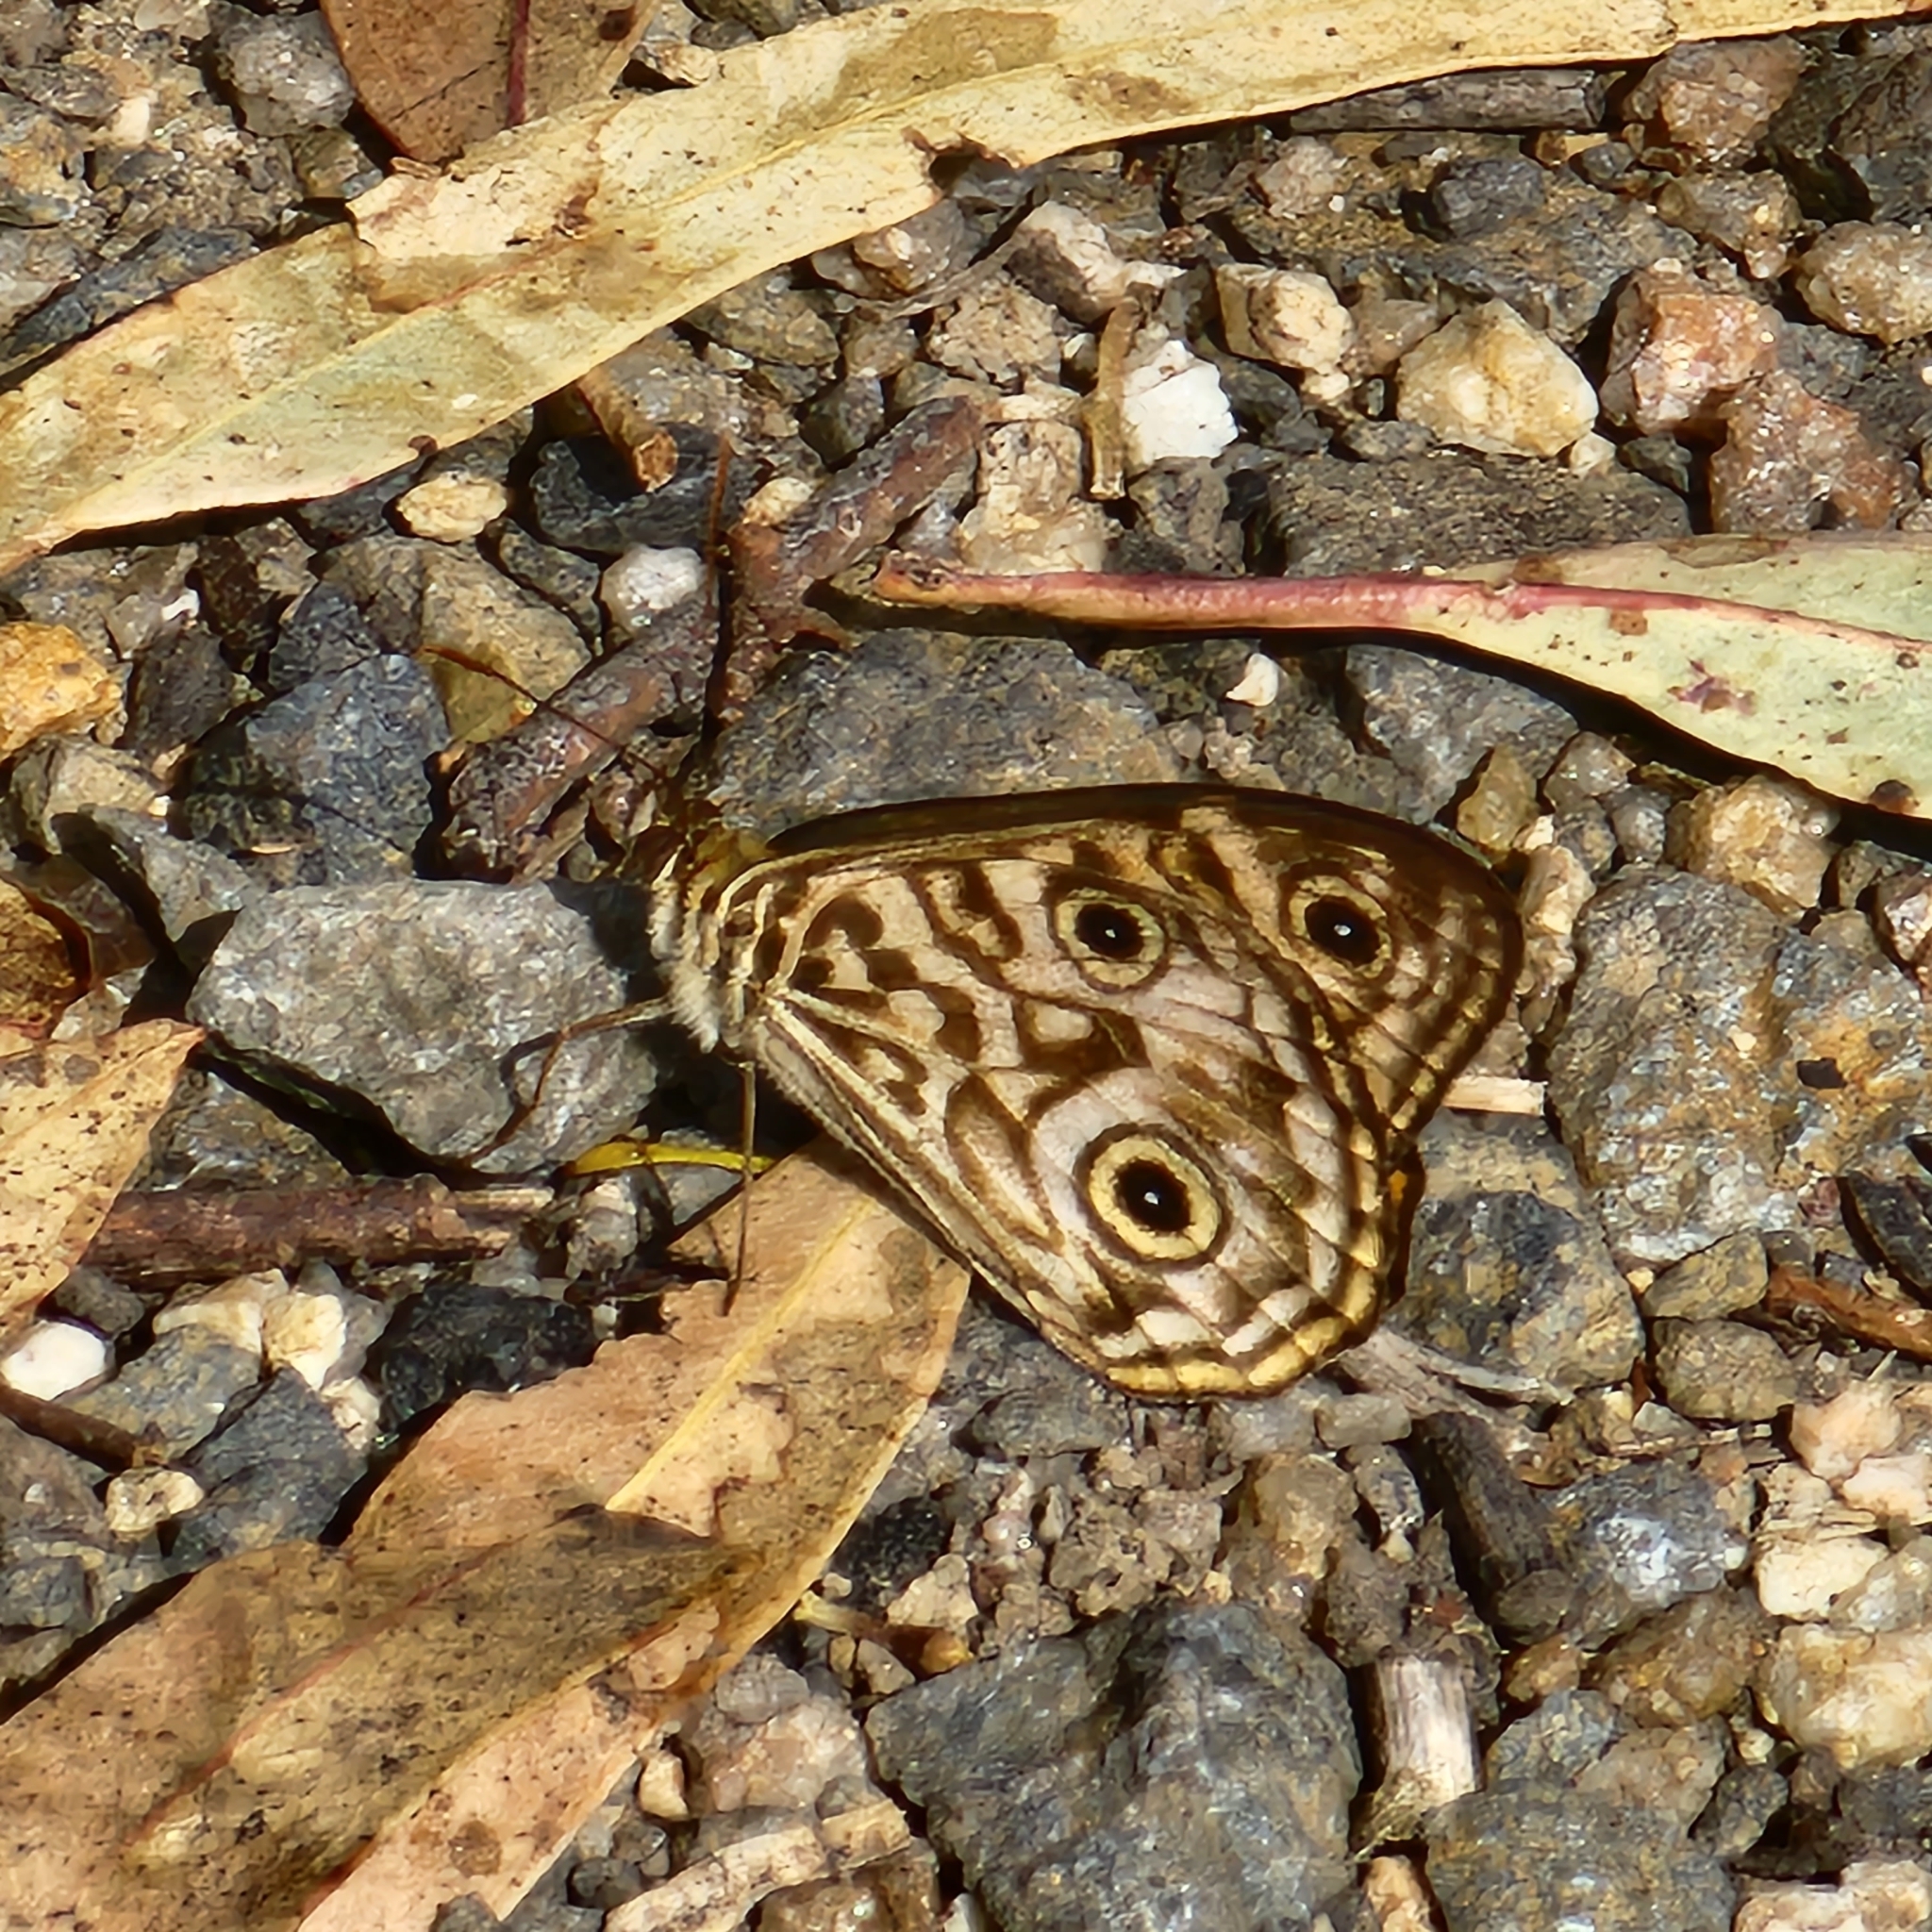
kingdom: Animalia
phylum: Arthropoda
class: Insecta
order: Lepidoptera
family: Nymphalidae
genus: Geitoneura
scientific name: Geitoneura acantha
